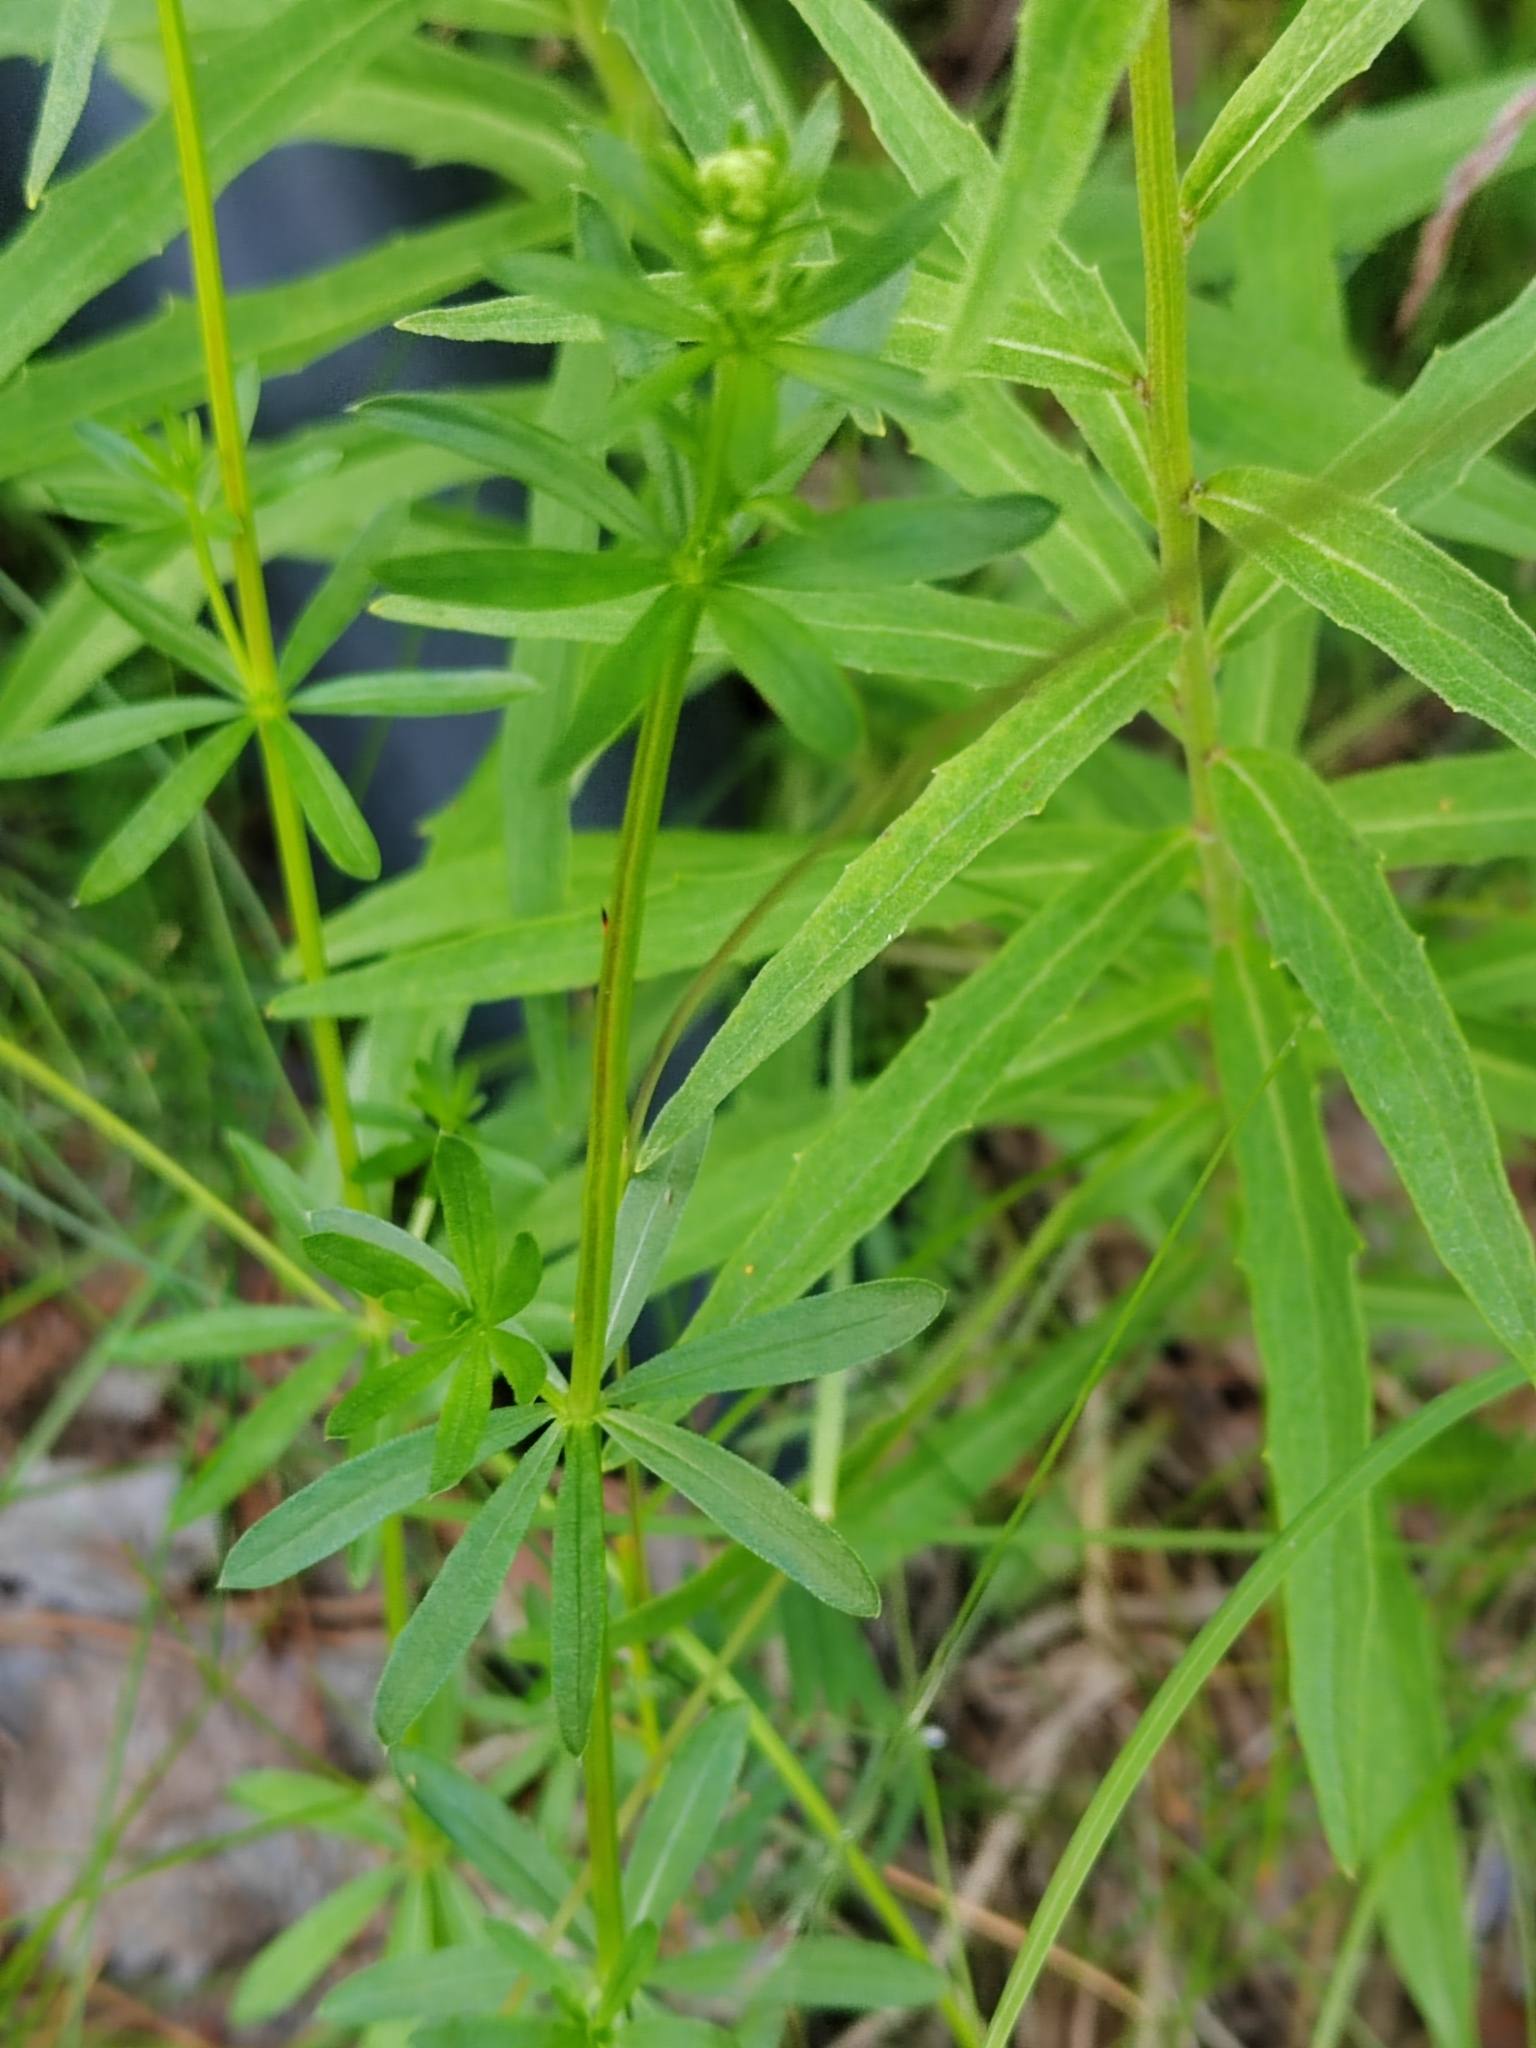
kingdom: Plantae
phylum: Tracheophyta
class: Magnoliopsida
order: Gentianales
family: Rubiaceae
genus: Galium
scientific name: Galium mollugo
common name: Hedge bedstraw
